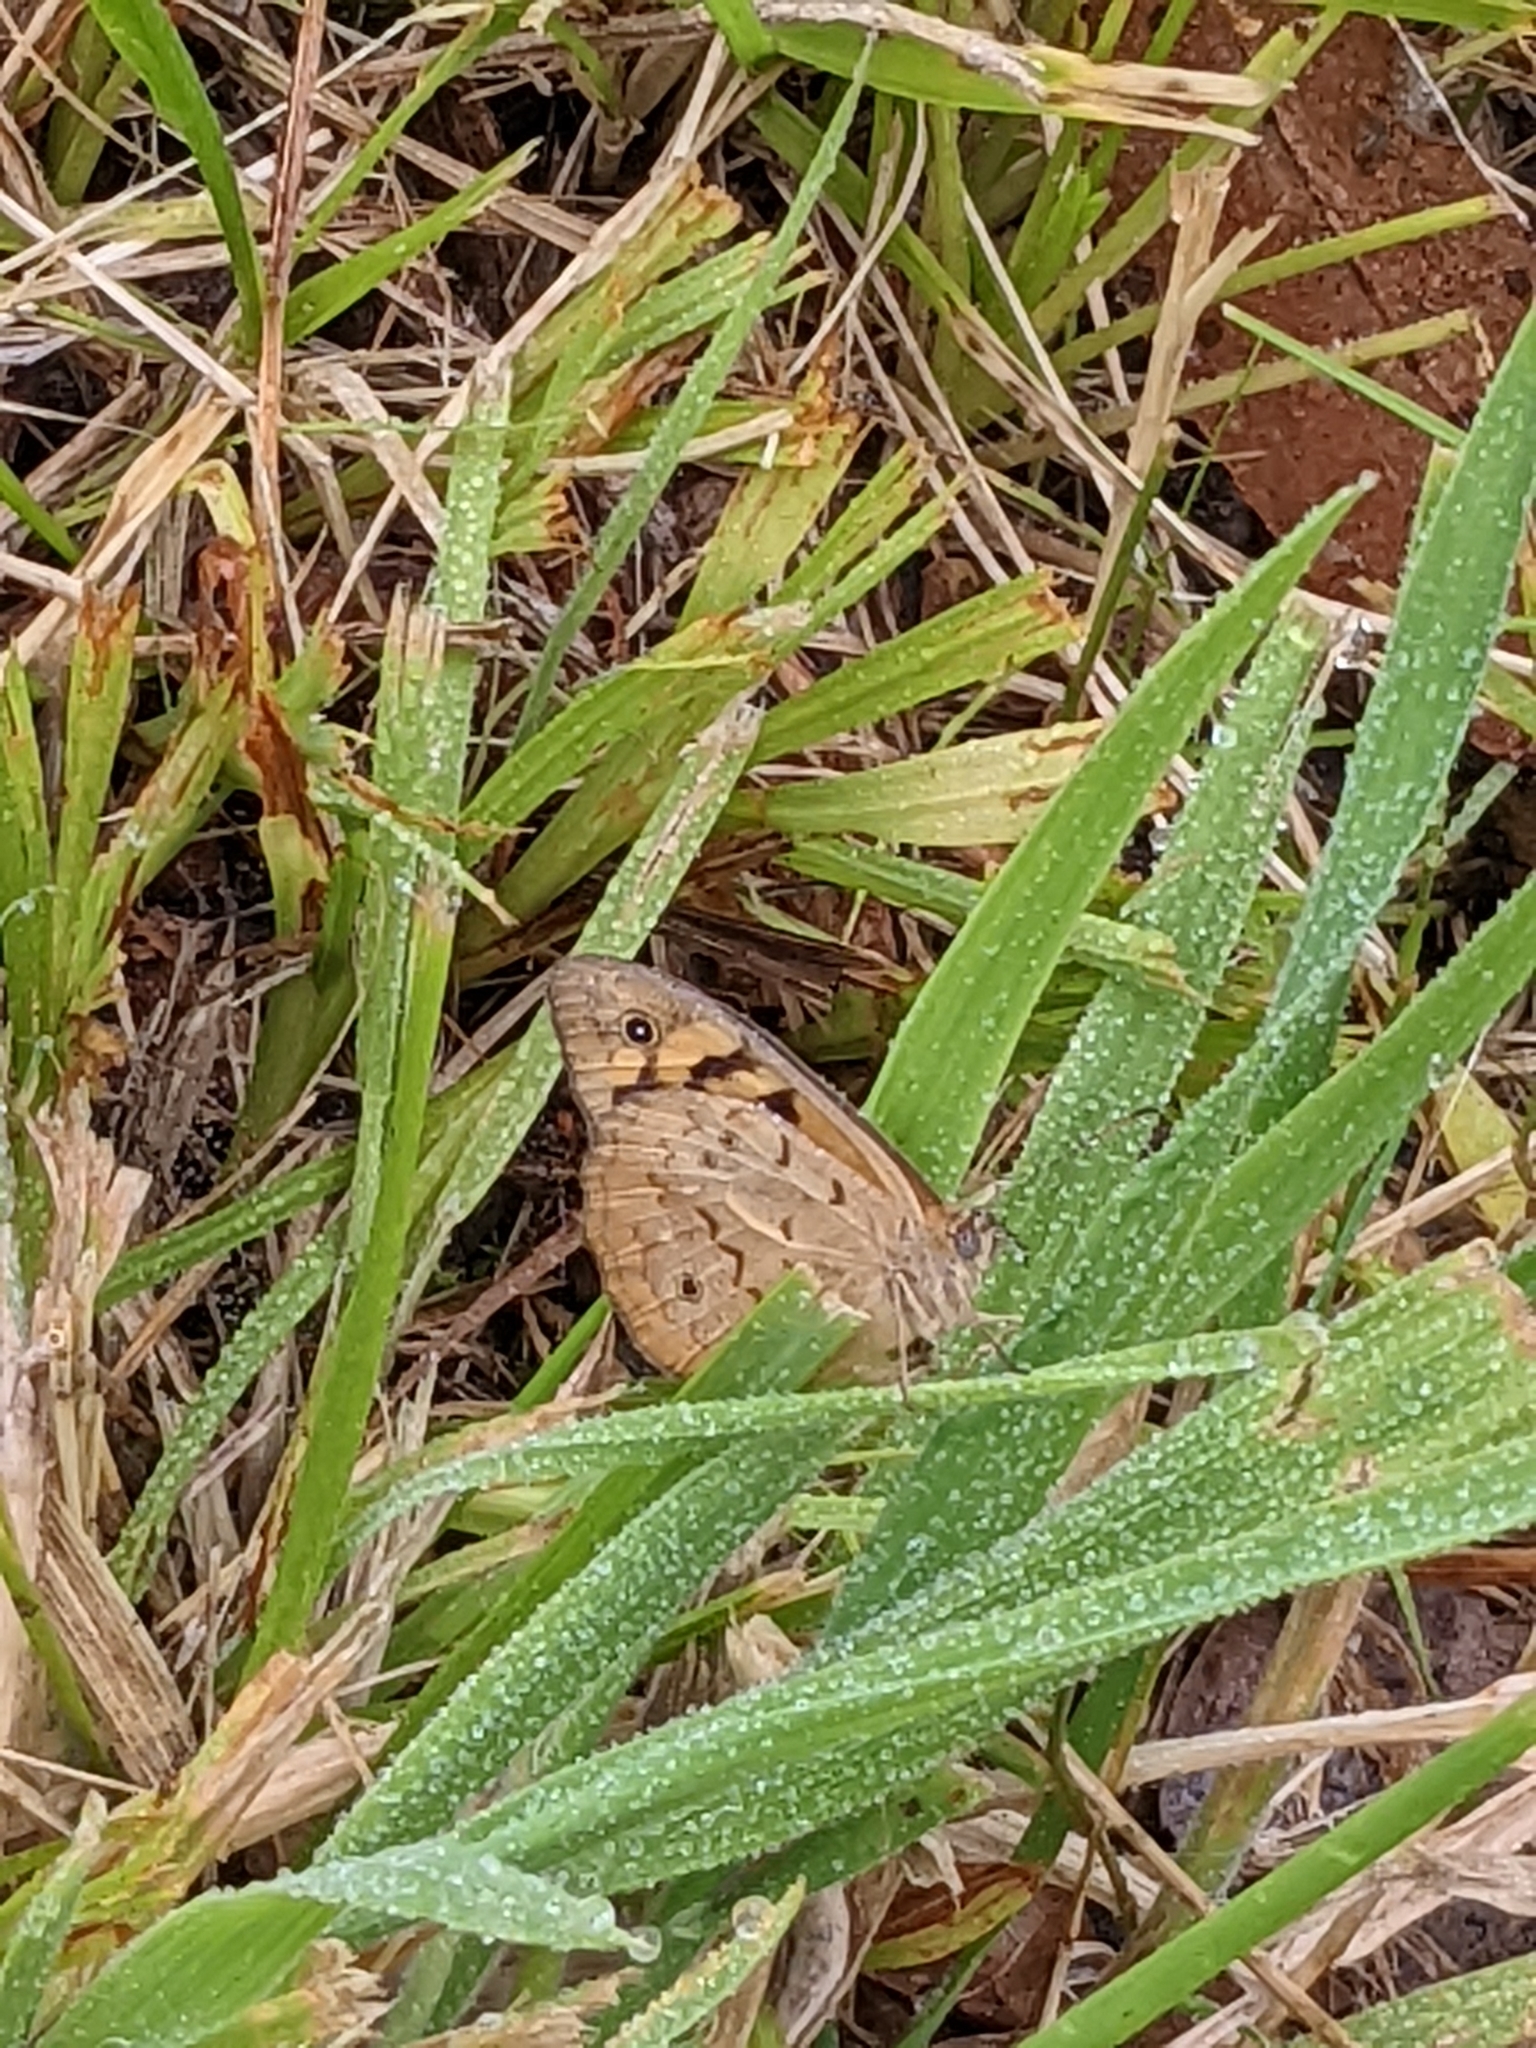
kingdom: Animalia
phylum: Arthropoda
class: Insecta
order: Lepidoptera
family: Nymphalidae
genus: Heteronympha
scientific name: Heteronympha merope
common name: Common brown
